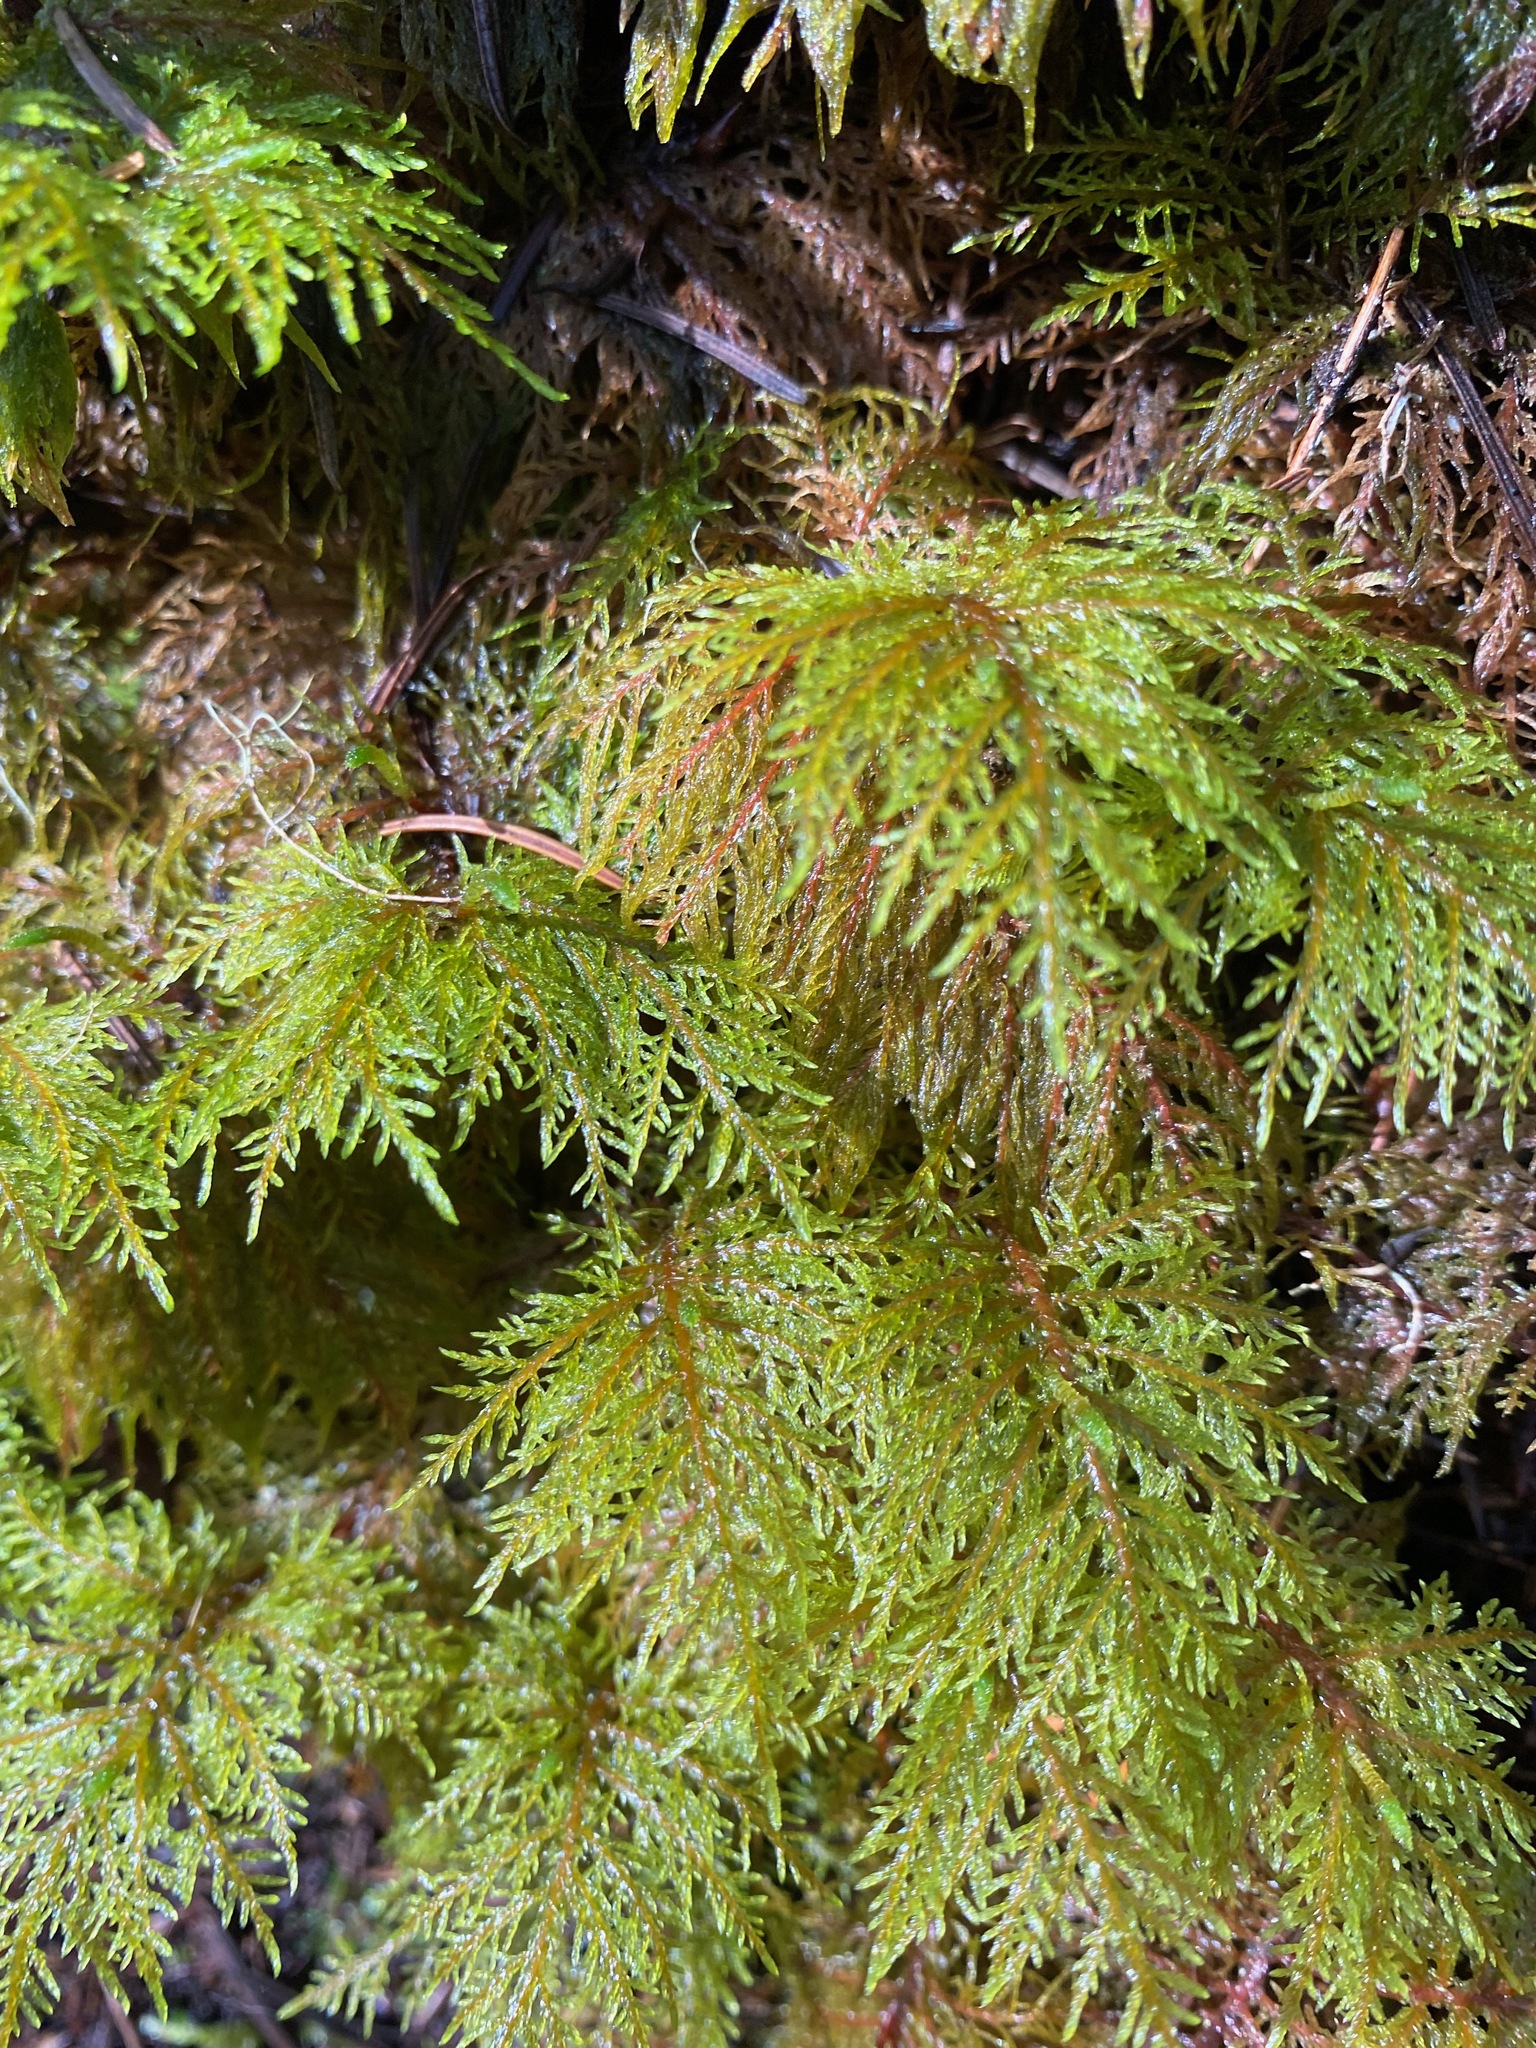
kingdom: Plantae
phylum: Bryophyta
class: Bryopsida
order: Hypnales
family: Hylocomiaceae
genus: Hylocomium
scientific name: Hylocomium splendens
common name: Stairstep moss
